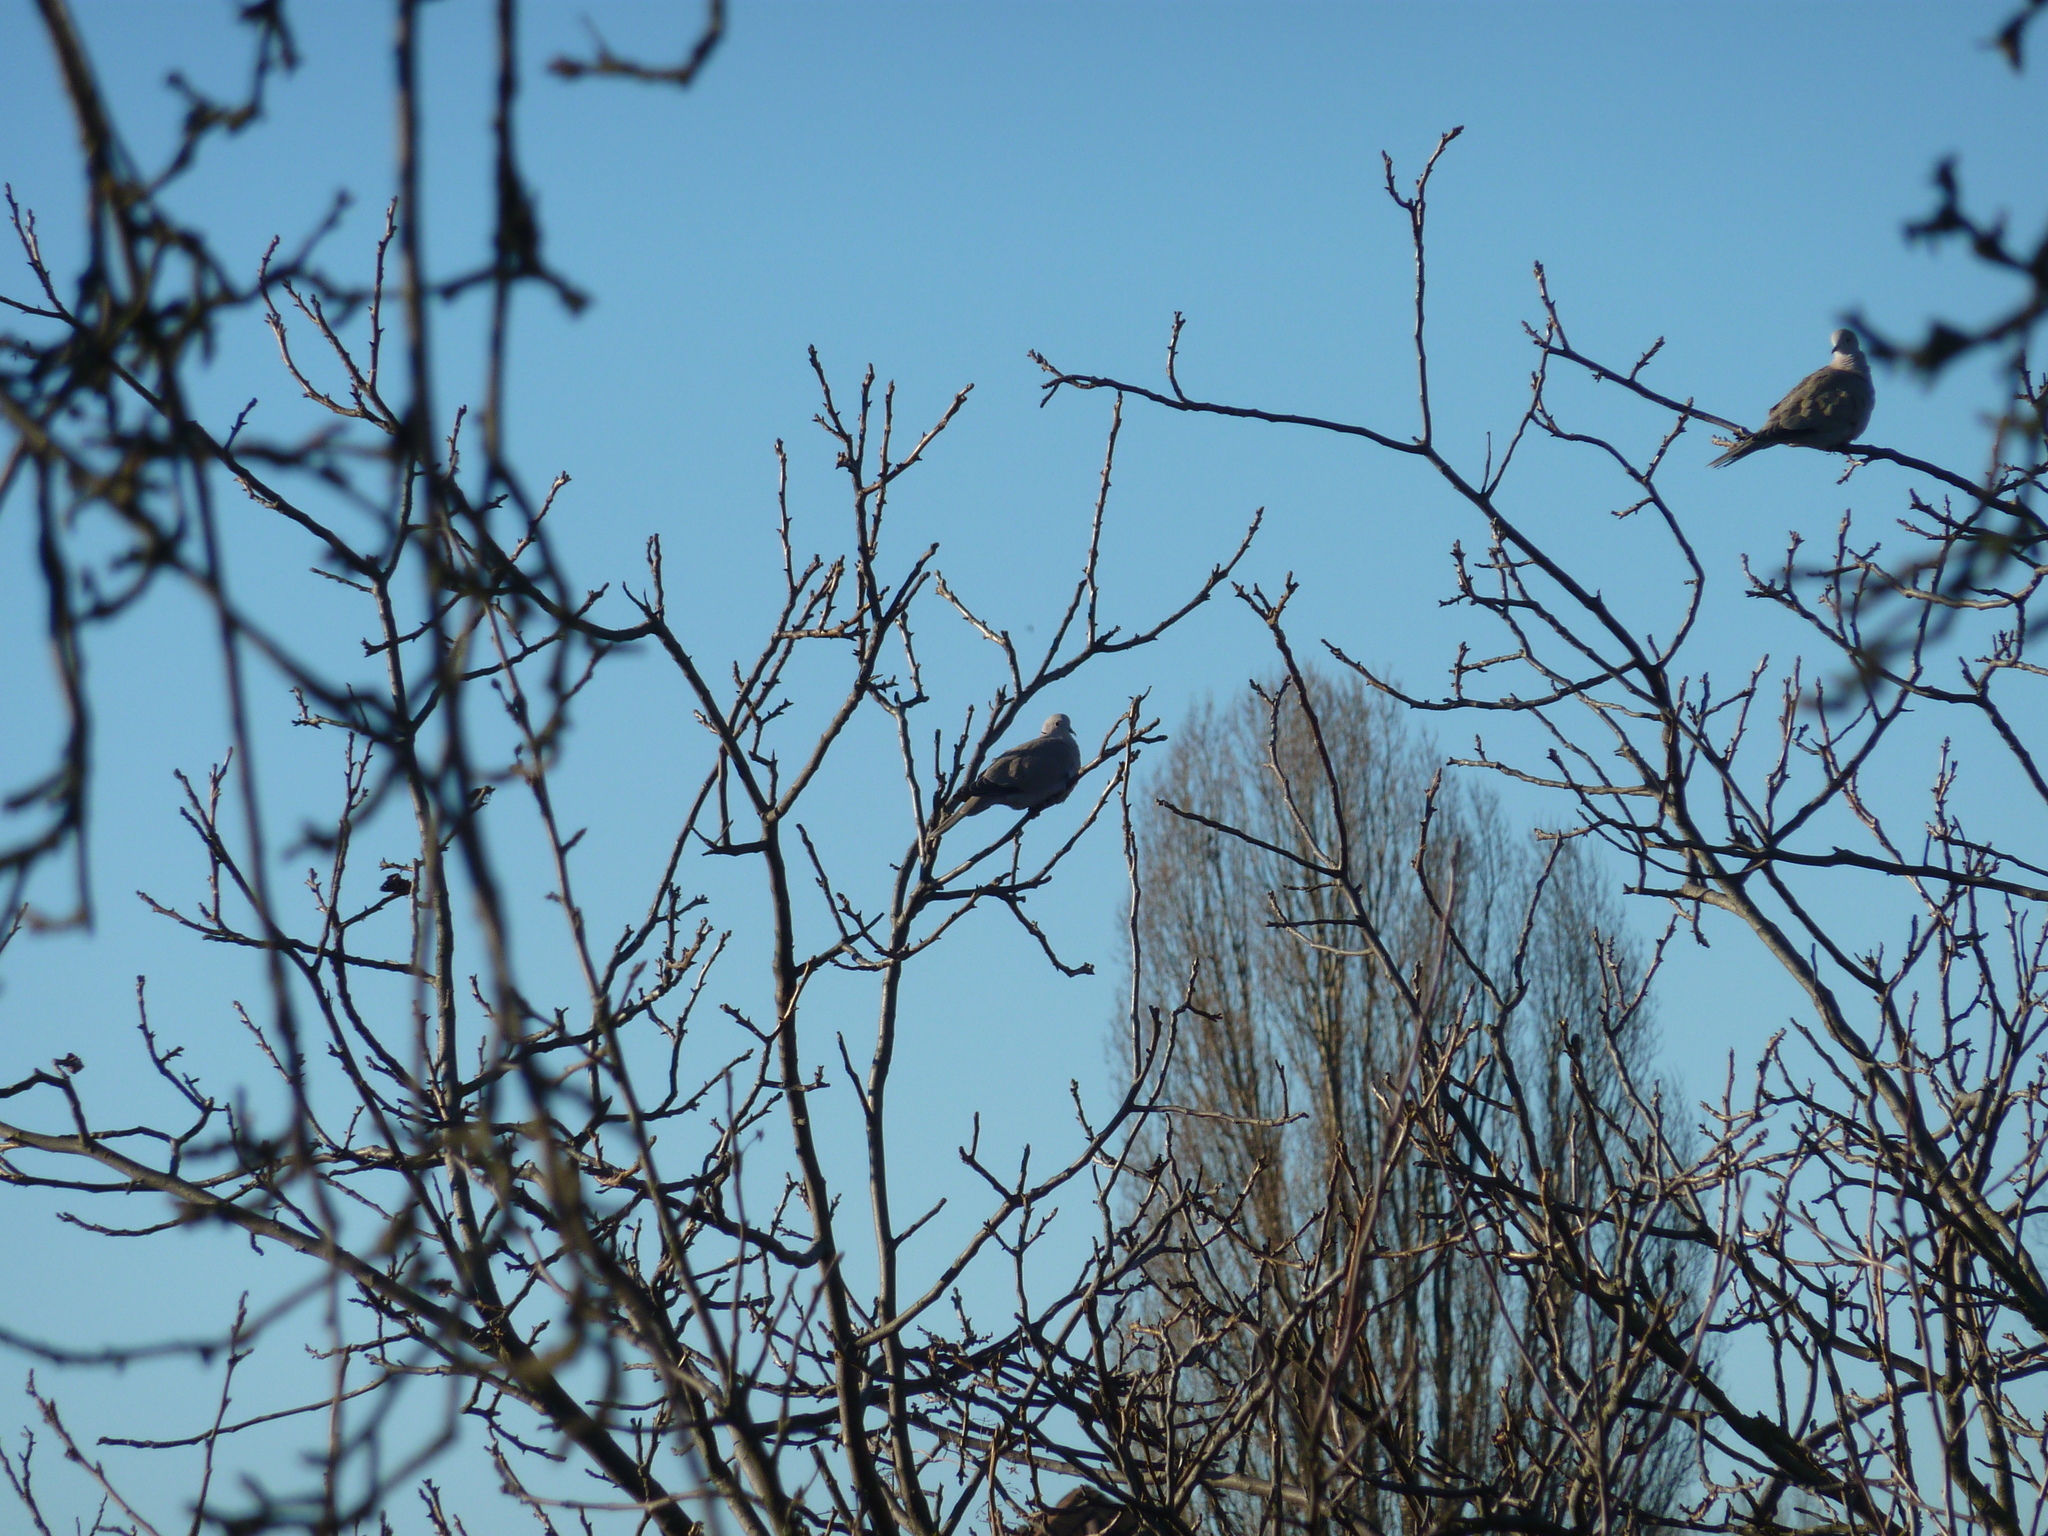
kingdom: Animalia
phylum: Chordata
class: Aves
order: Columbiformes
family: Columbidae
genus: Streptopelia
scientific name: Streptopelia decaocto
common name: Eurasian collared dove
